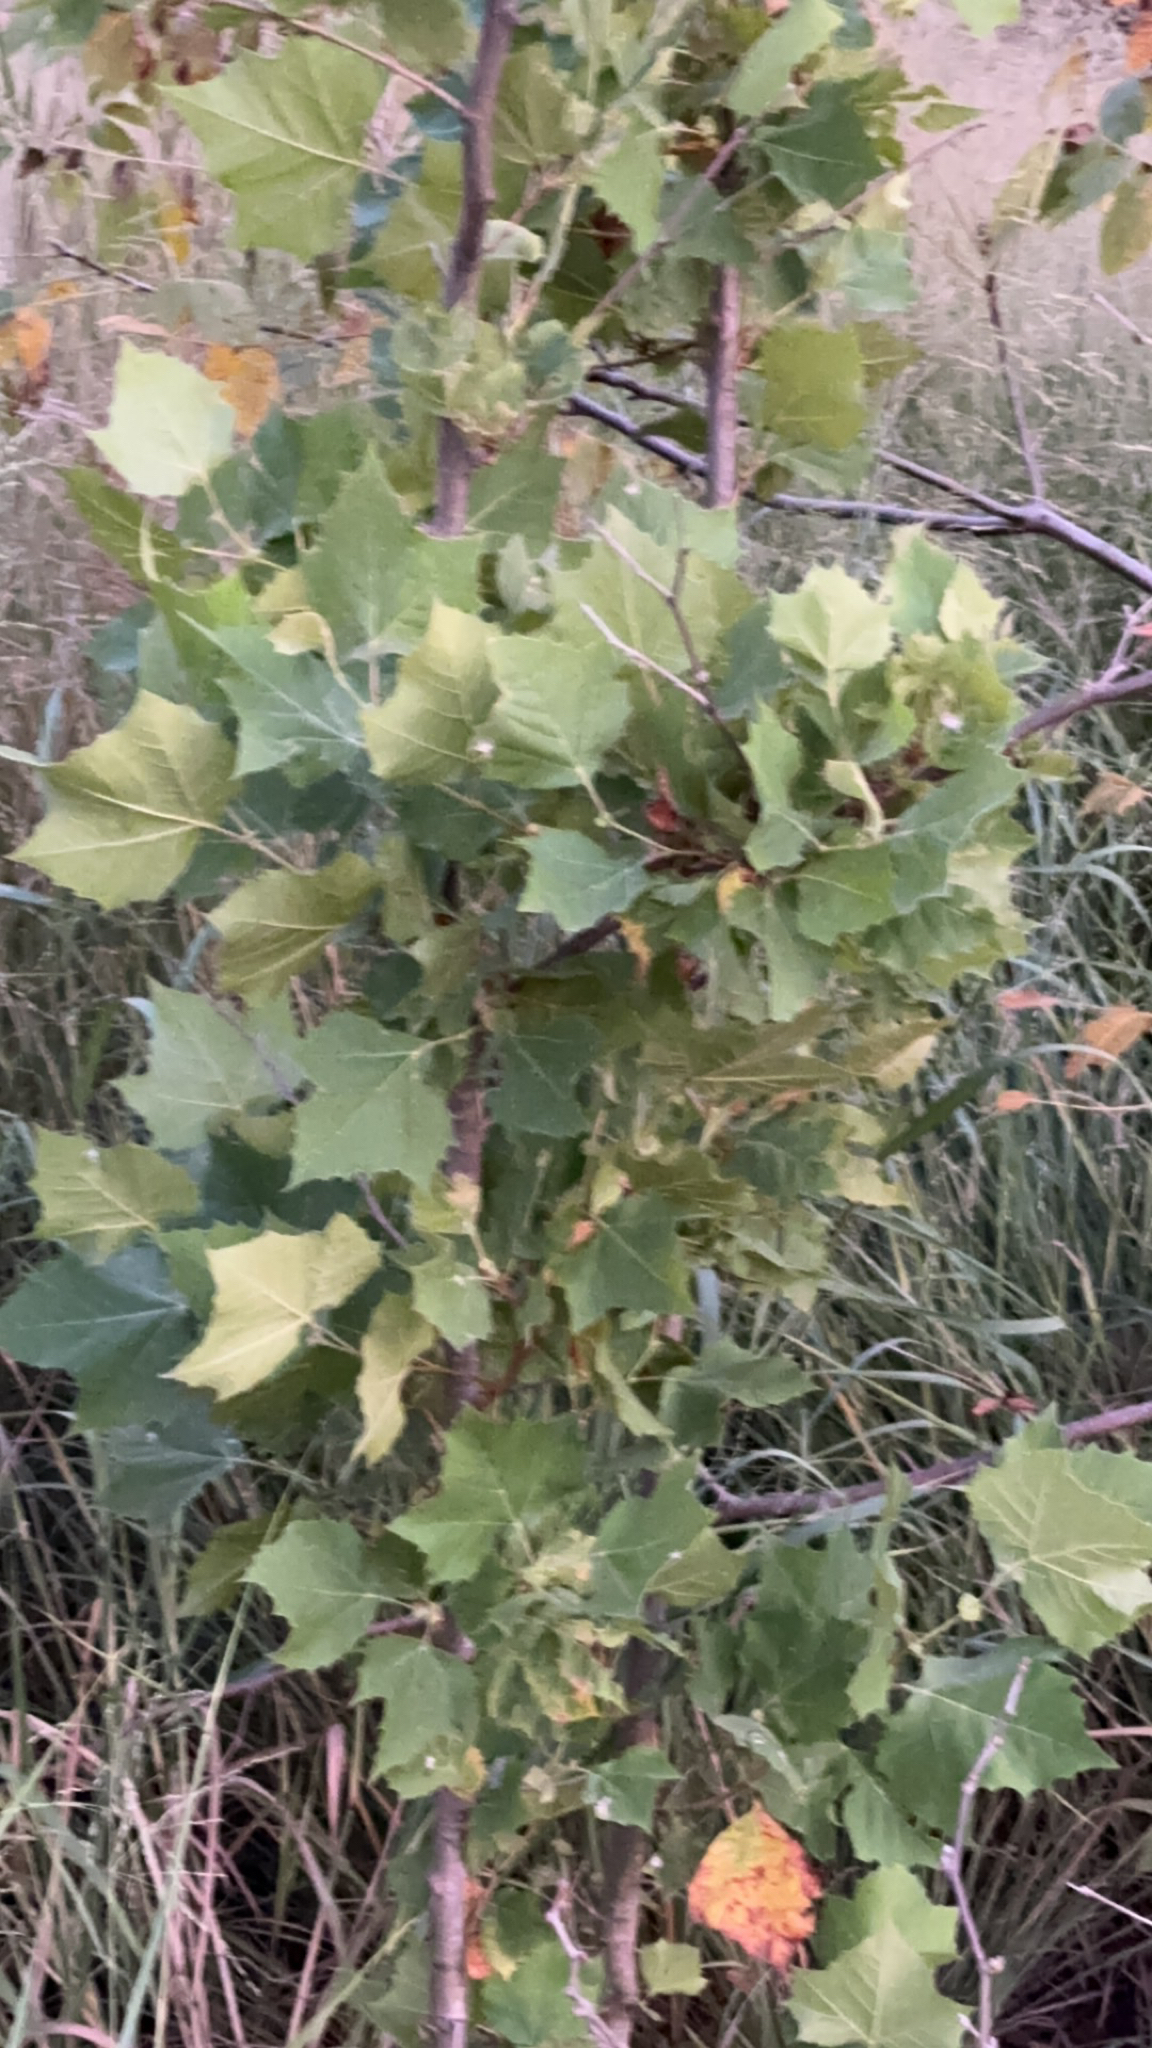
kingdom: Plantae
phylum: Tracheophyta
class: Magnoliopsida
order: Proteales
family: Platanaceae
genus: Platanus
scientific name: Platanus occidentalis
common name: American sycamore
